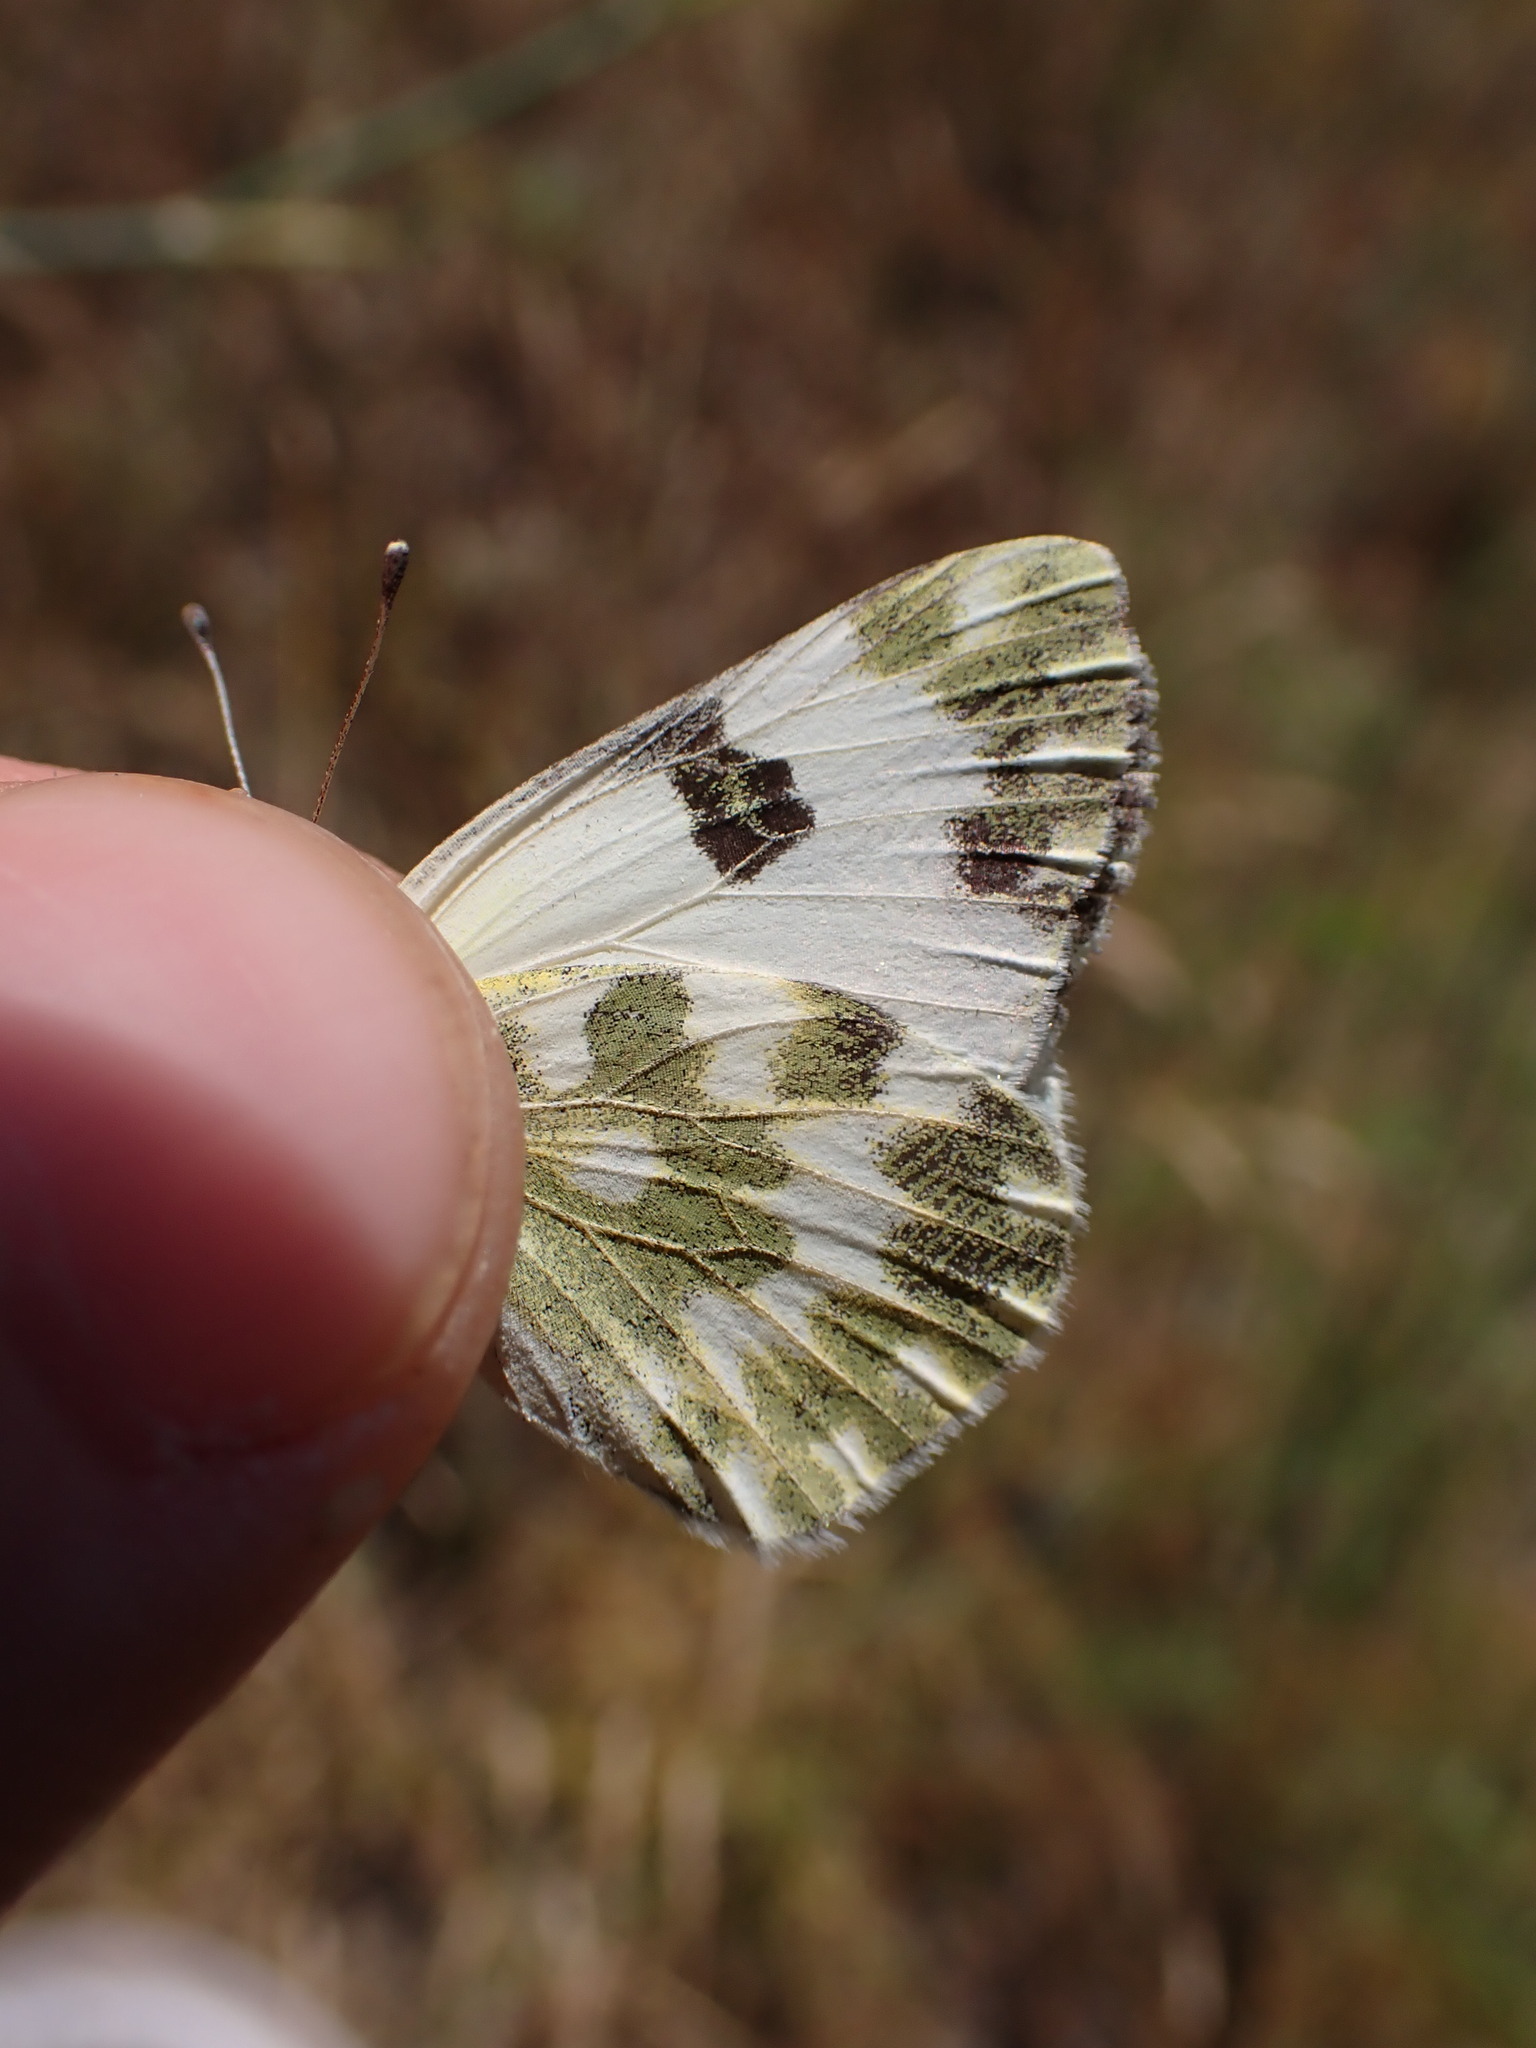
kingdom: Animalia
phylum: Arthropoda
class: Insecta
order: Lepidoptera
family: Pieridae
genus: Pontia
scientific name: Pontia daplidice
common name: Bath white
